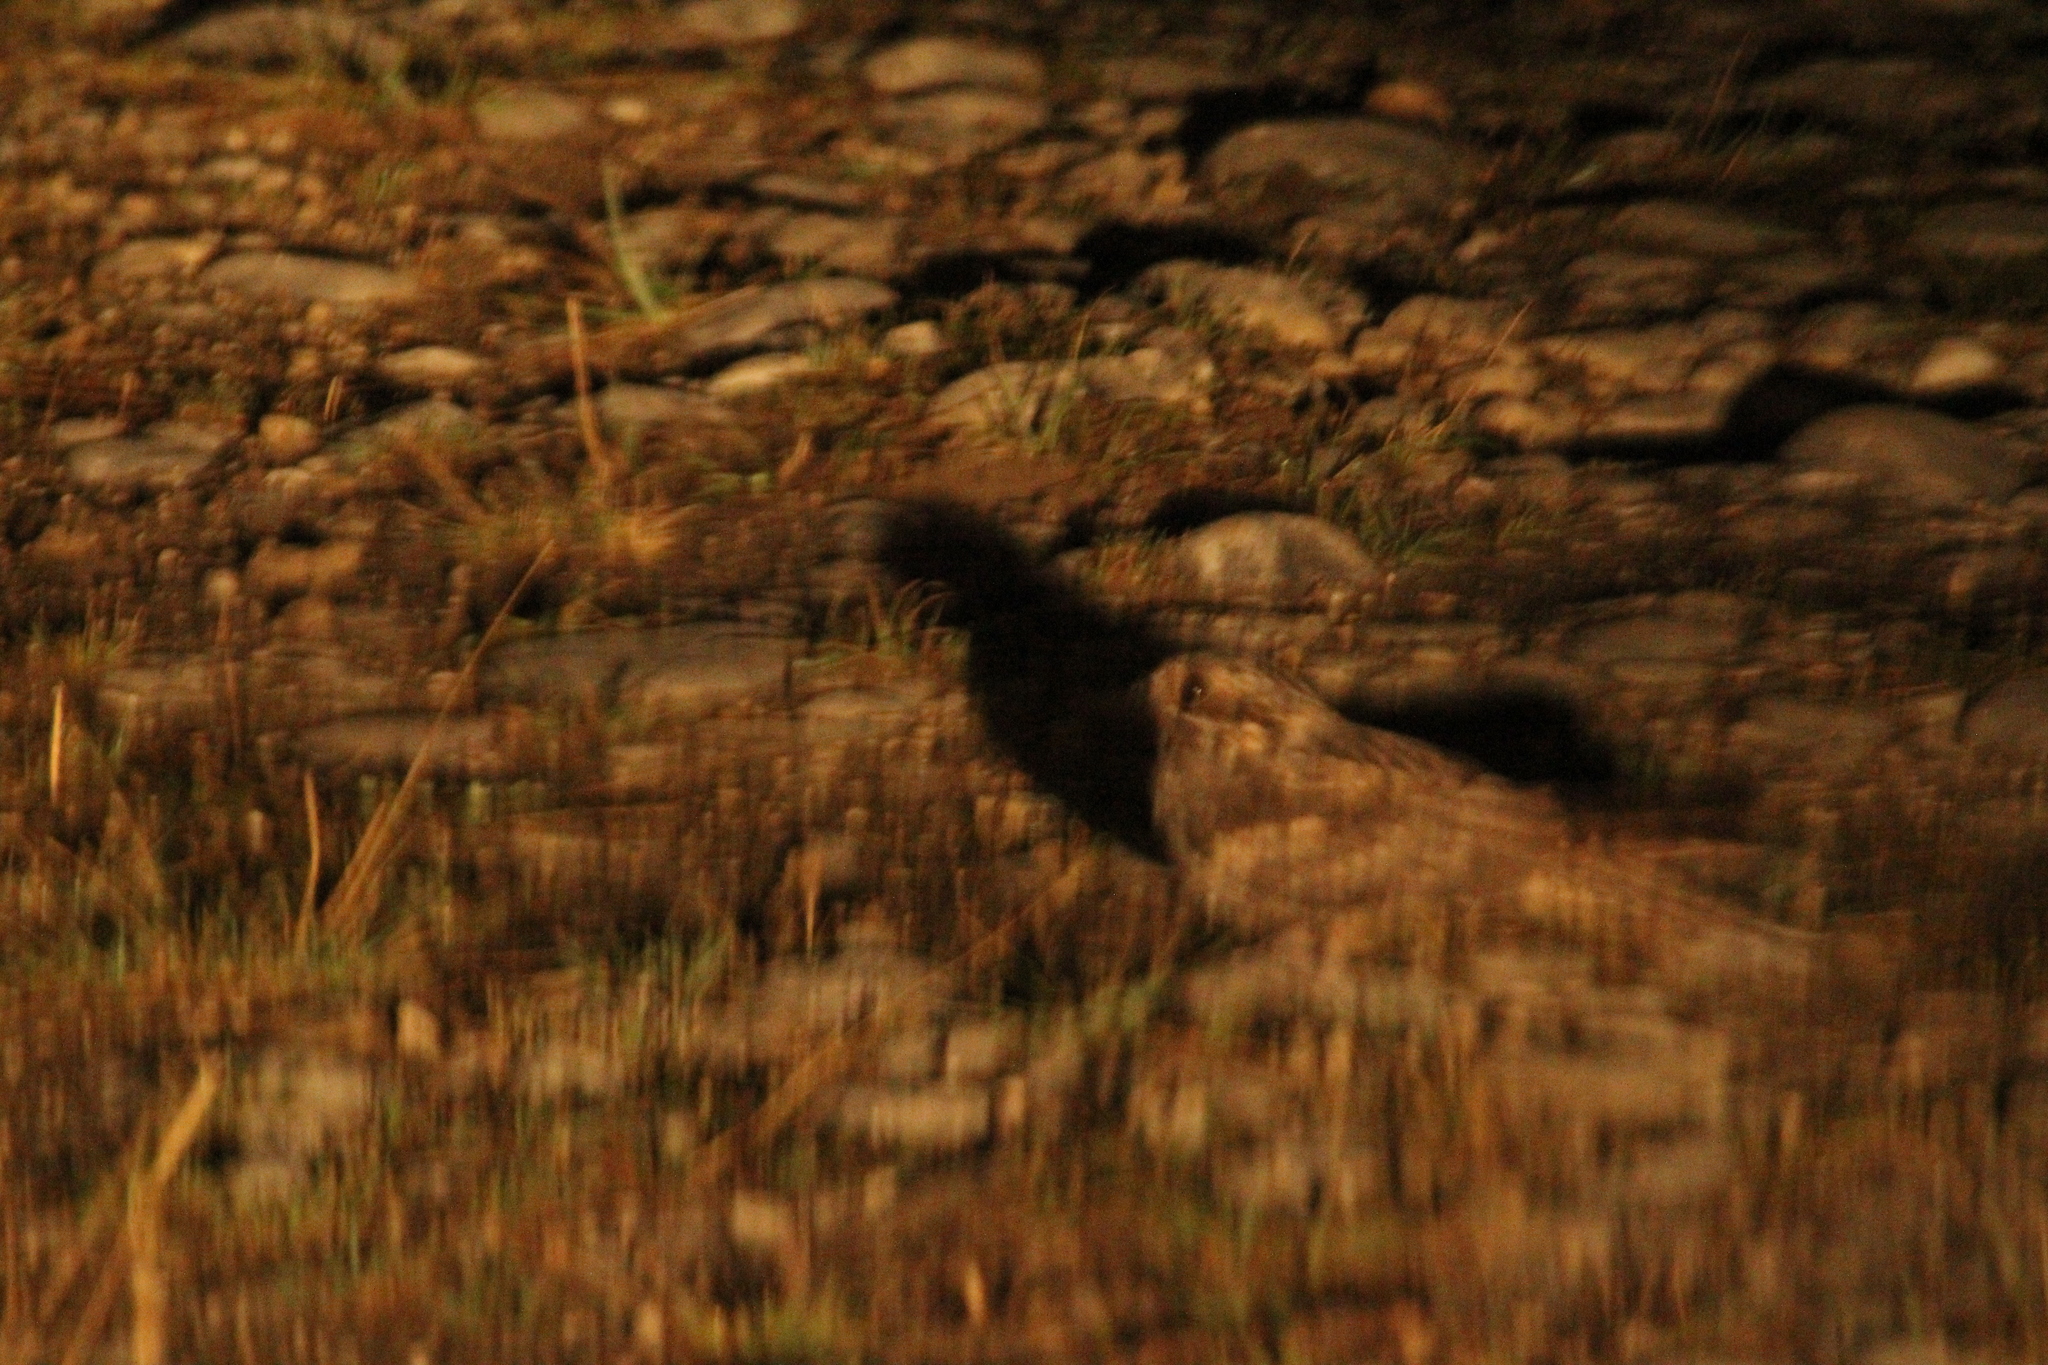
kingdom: Animalia
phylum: Chordata
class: Aves
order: Caprimulgiformes
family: Caprimulgidae
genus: Caprimulgus
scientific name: Caprimulgus europaeus
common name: European nightjar
